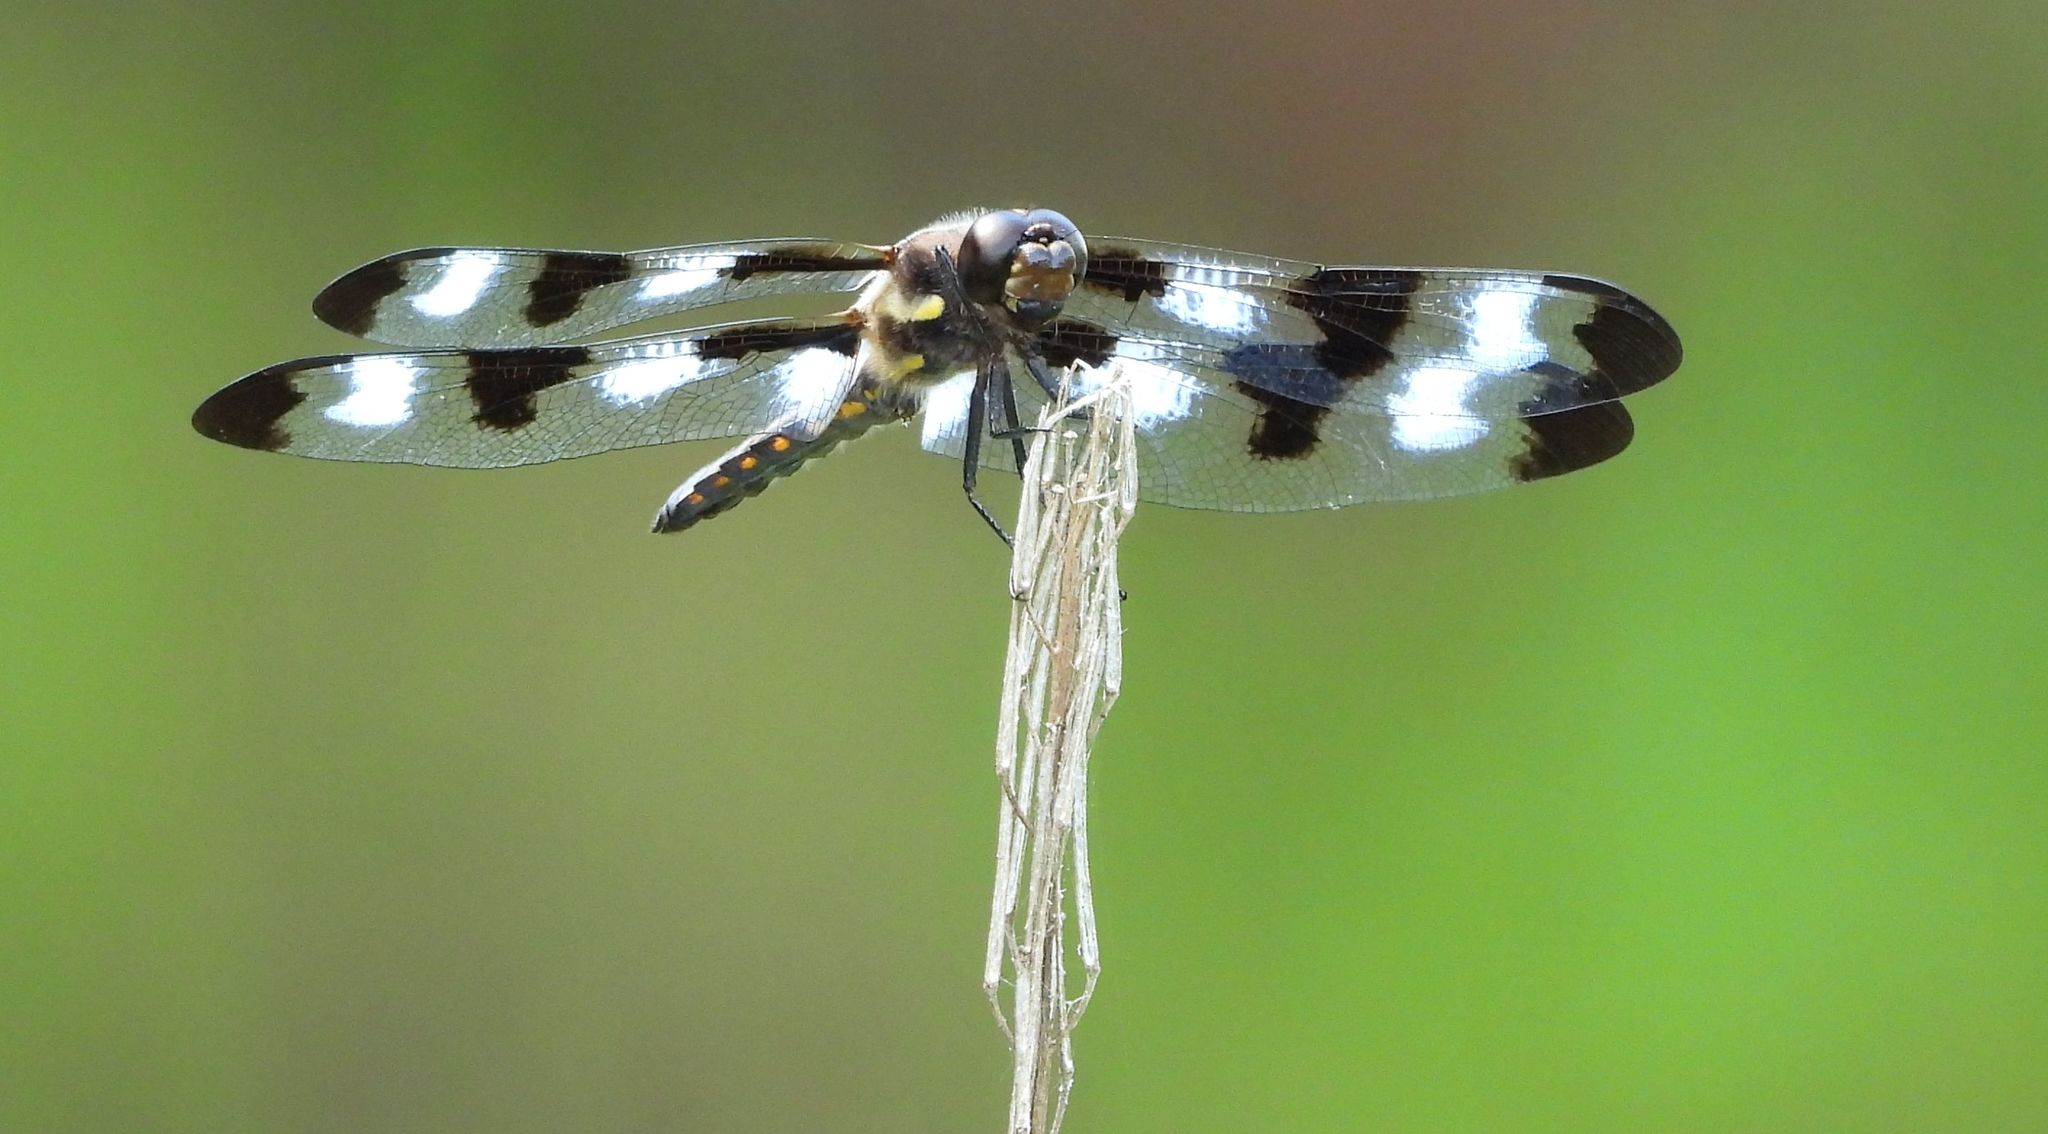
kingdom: Animalia
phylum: Arthropoda
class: Insecta
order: Odonata
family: Libellulidae
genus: Libellula
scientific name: Libellula pulchella
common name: Twelve-spotted skimmer
